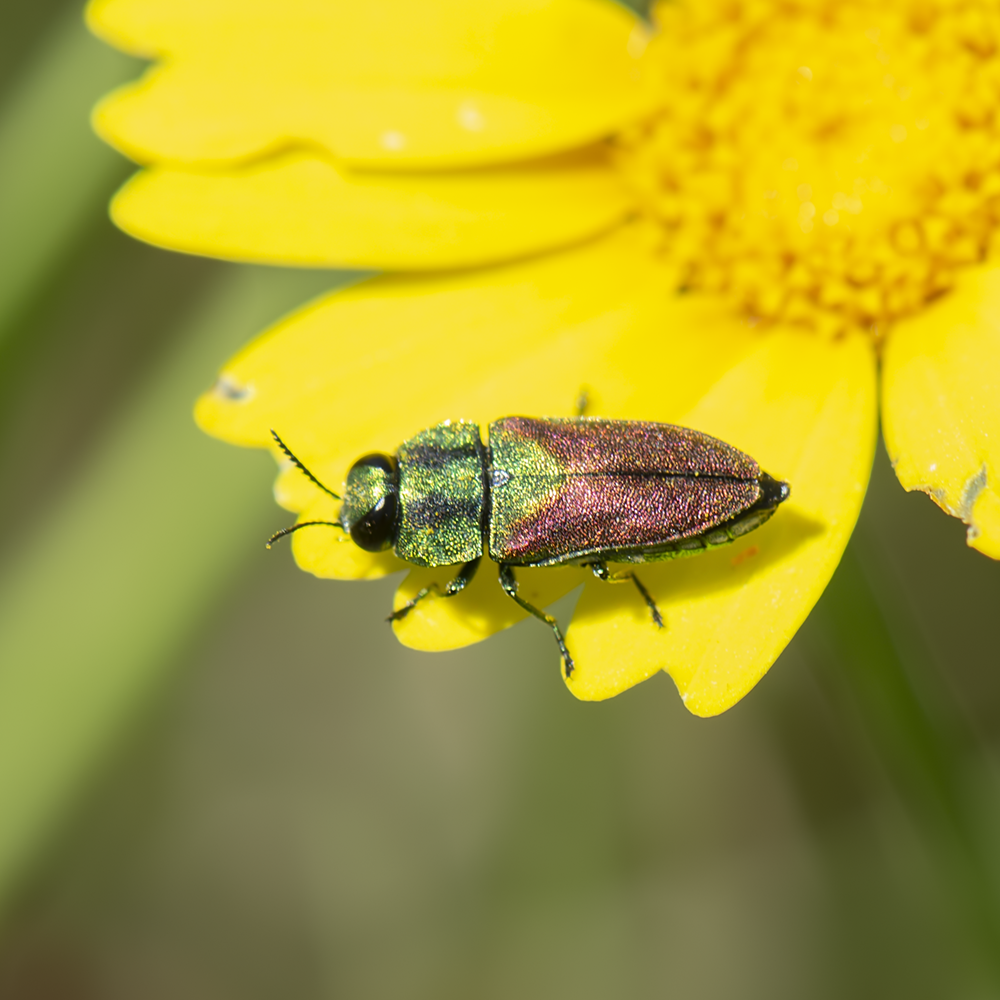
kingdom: Animalia
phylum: Arthropoda
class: Insecta
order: Coleoptera
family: Buprestidae
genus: Anthaxia
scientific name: Anthaxia passerinii
